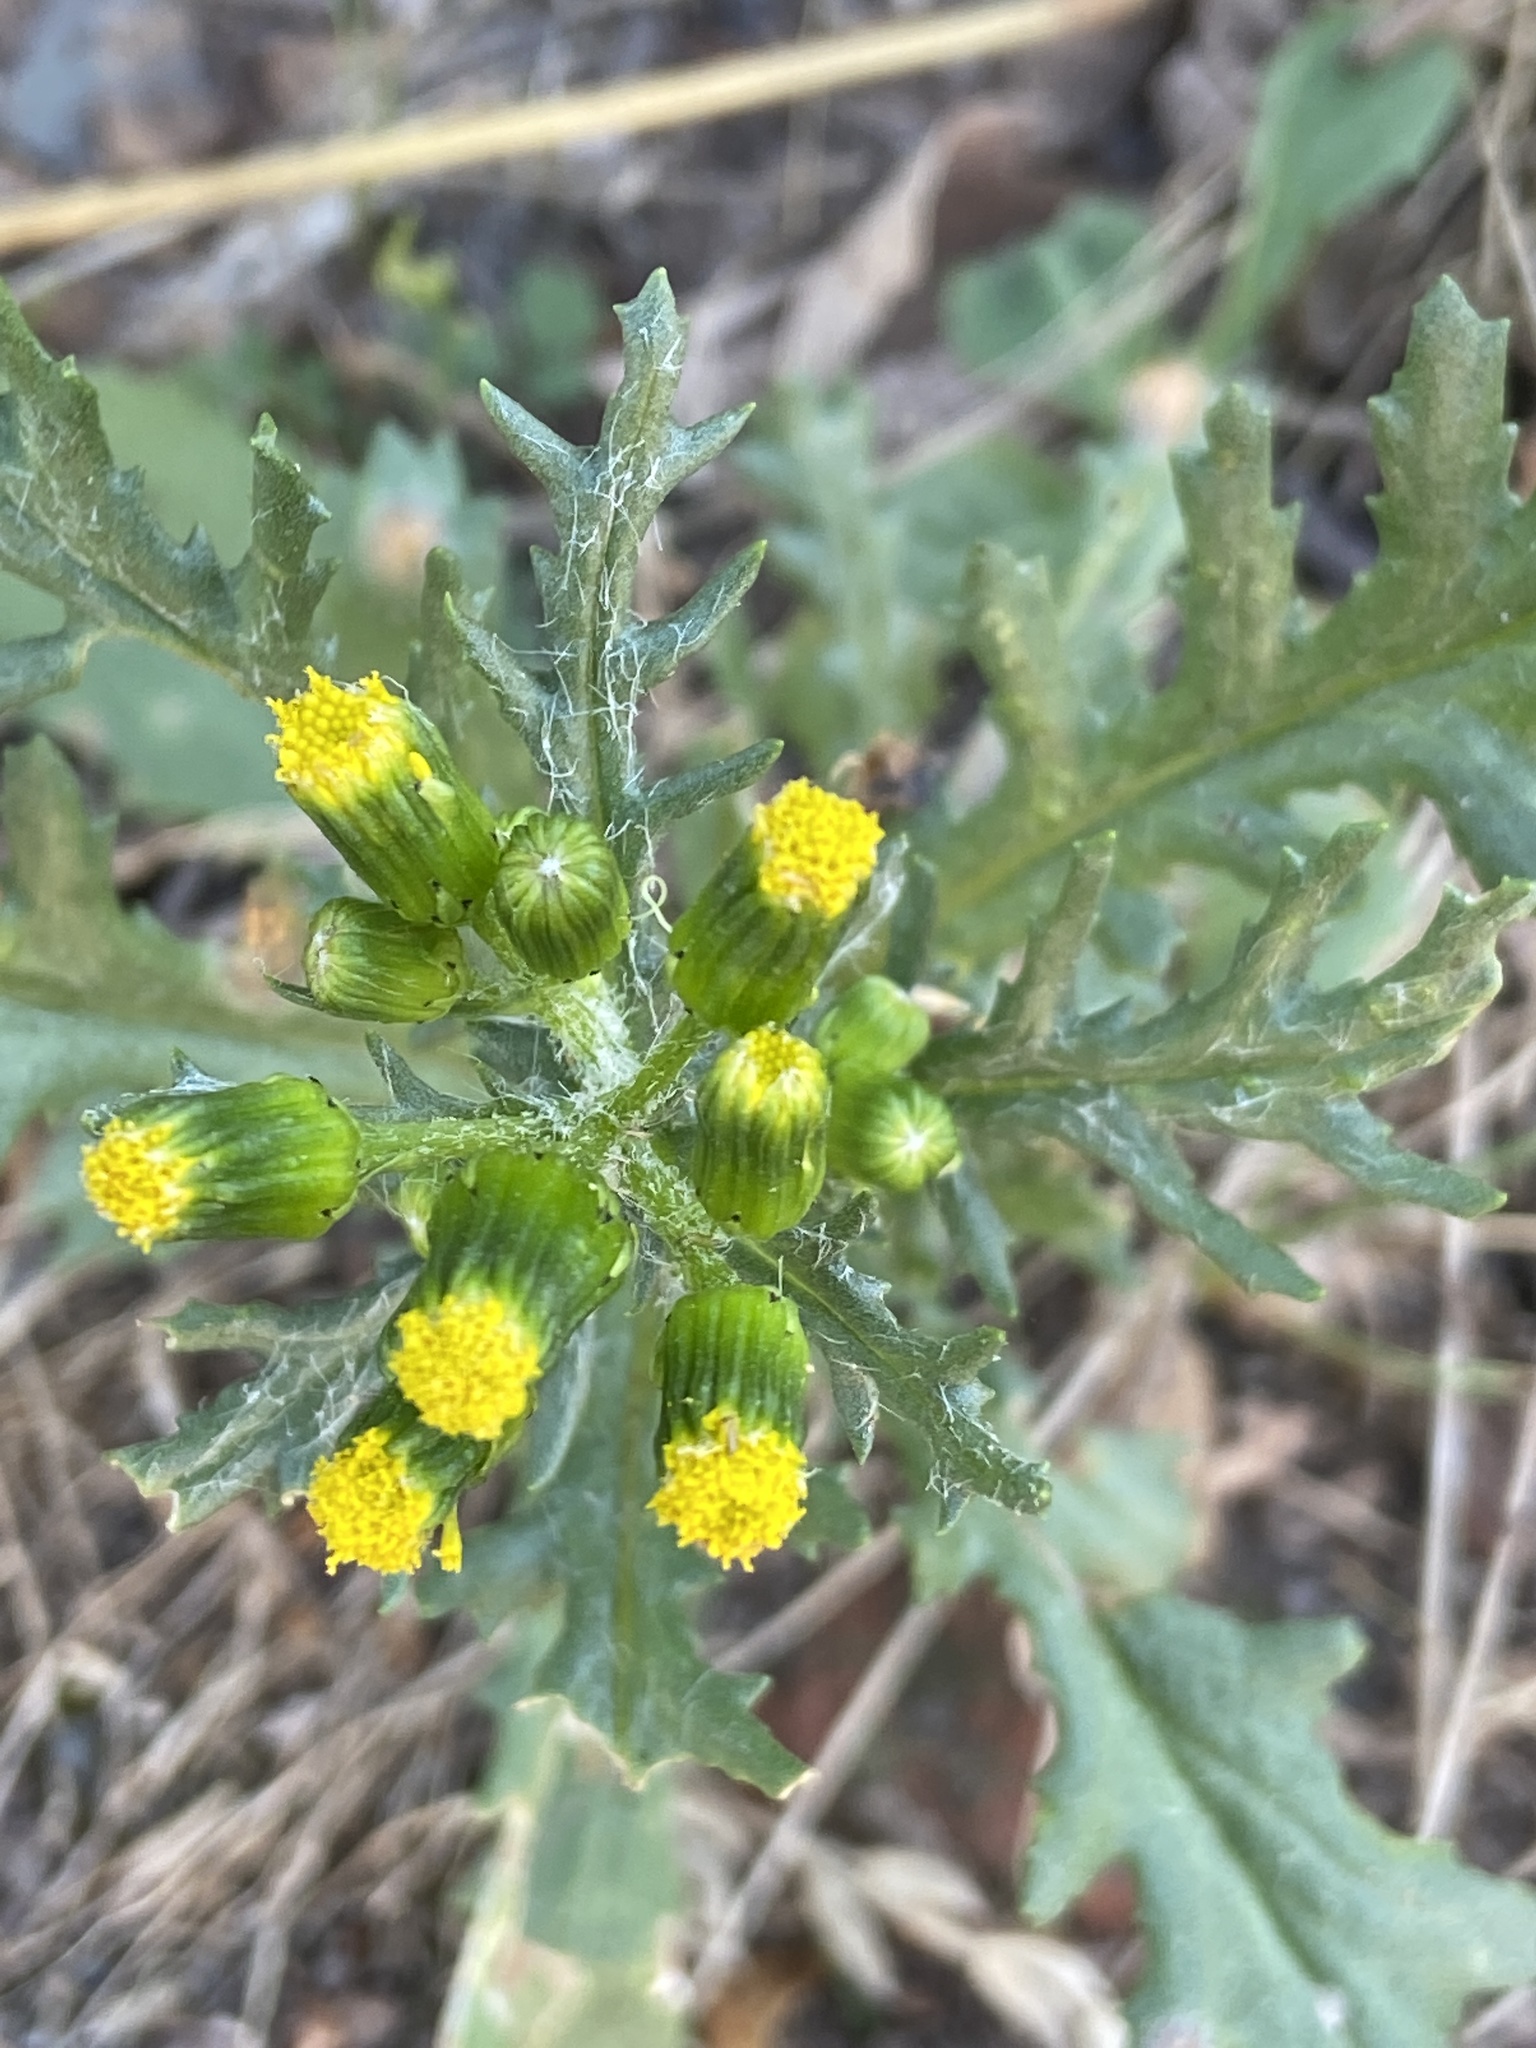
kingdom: Plantae
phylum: Tracheophyta
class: Magnoliopsida
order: Asterales
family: Asteraceae
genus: Senecio
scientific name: Senecio vulgaris
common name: Old-man-in-the-spring
